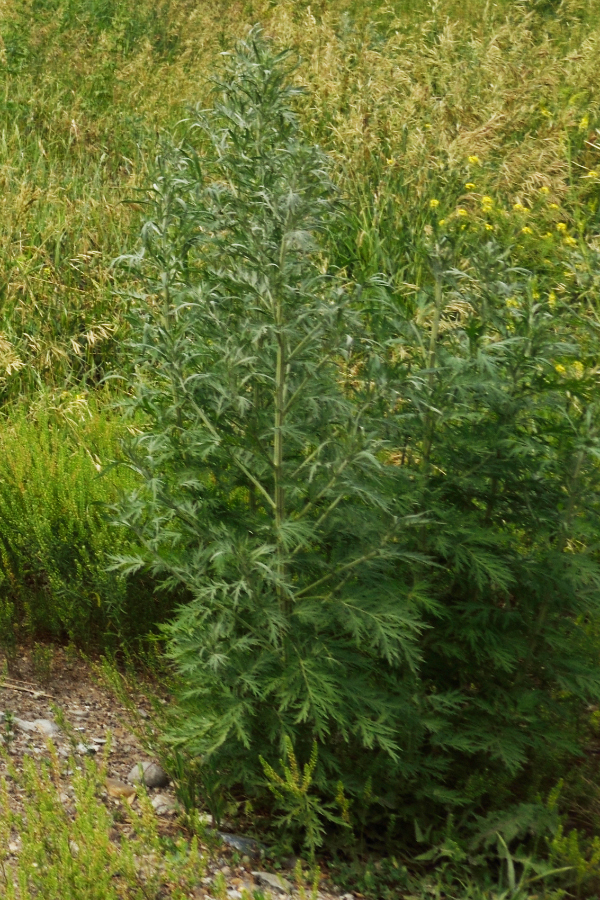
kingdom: Plantae
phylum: Tracheophyta
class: Magnoliopsida
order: Asterales
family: Asteraceae
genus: Artemisia
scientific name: Artemisia sieversiana
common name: Sieversian wormwood
